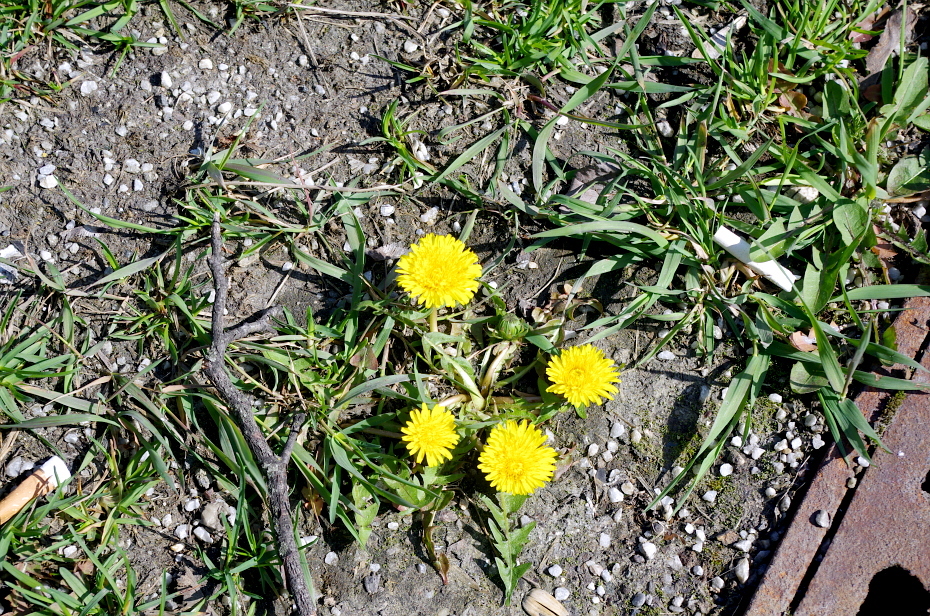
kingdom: Plantae
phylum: Tracheophyta
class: Magnoliopsida
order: Asterales
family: Asteraceae
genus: Taraxacum
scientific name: Taraxacum officinale
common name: Common dandelion
